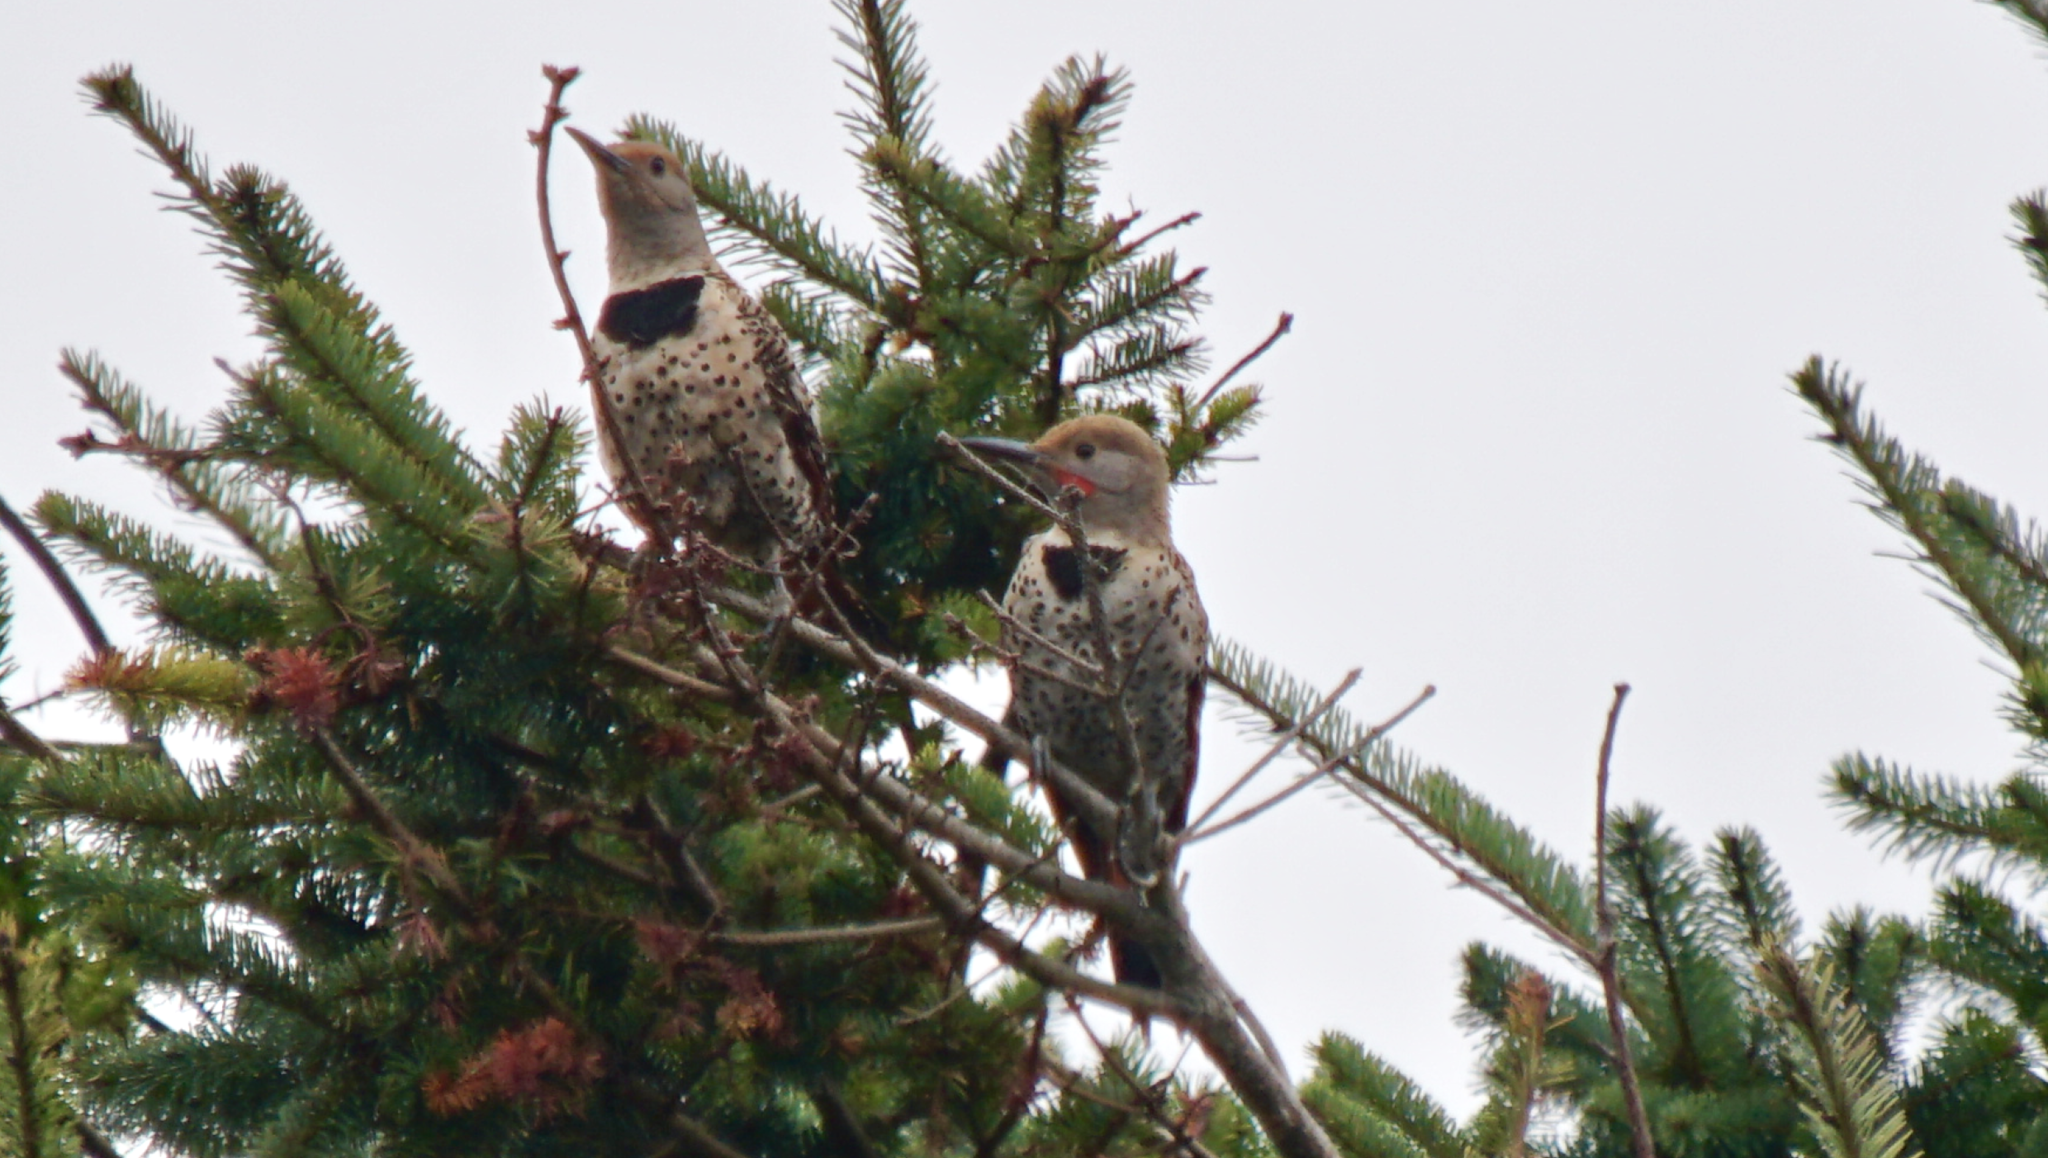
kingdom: Animalia
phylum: Chordata
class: Aves
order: Piciformes
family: Picidae
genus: Colaptes
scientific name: Colaptes auratus
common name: Northern flicker
